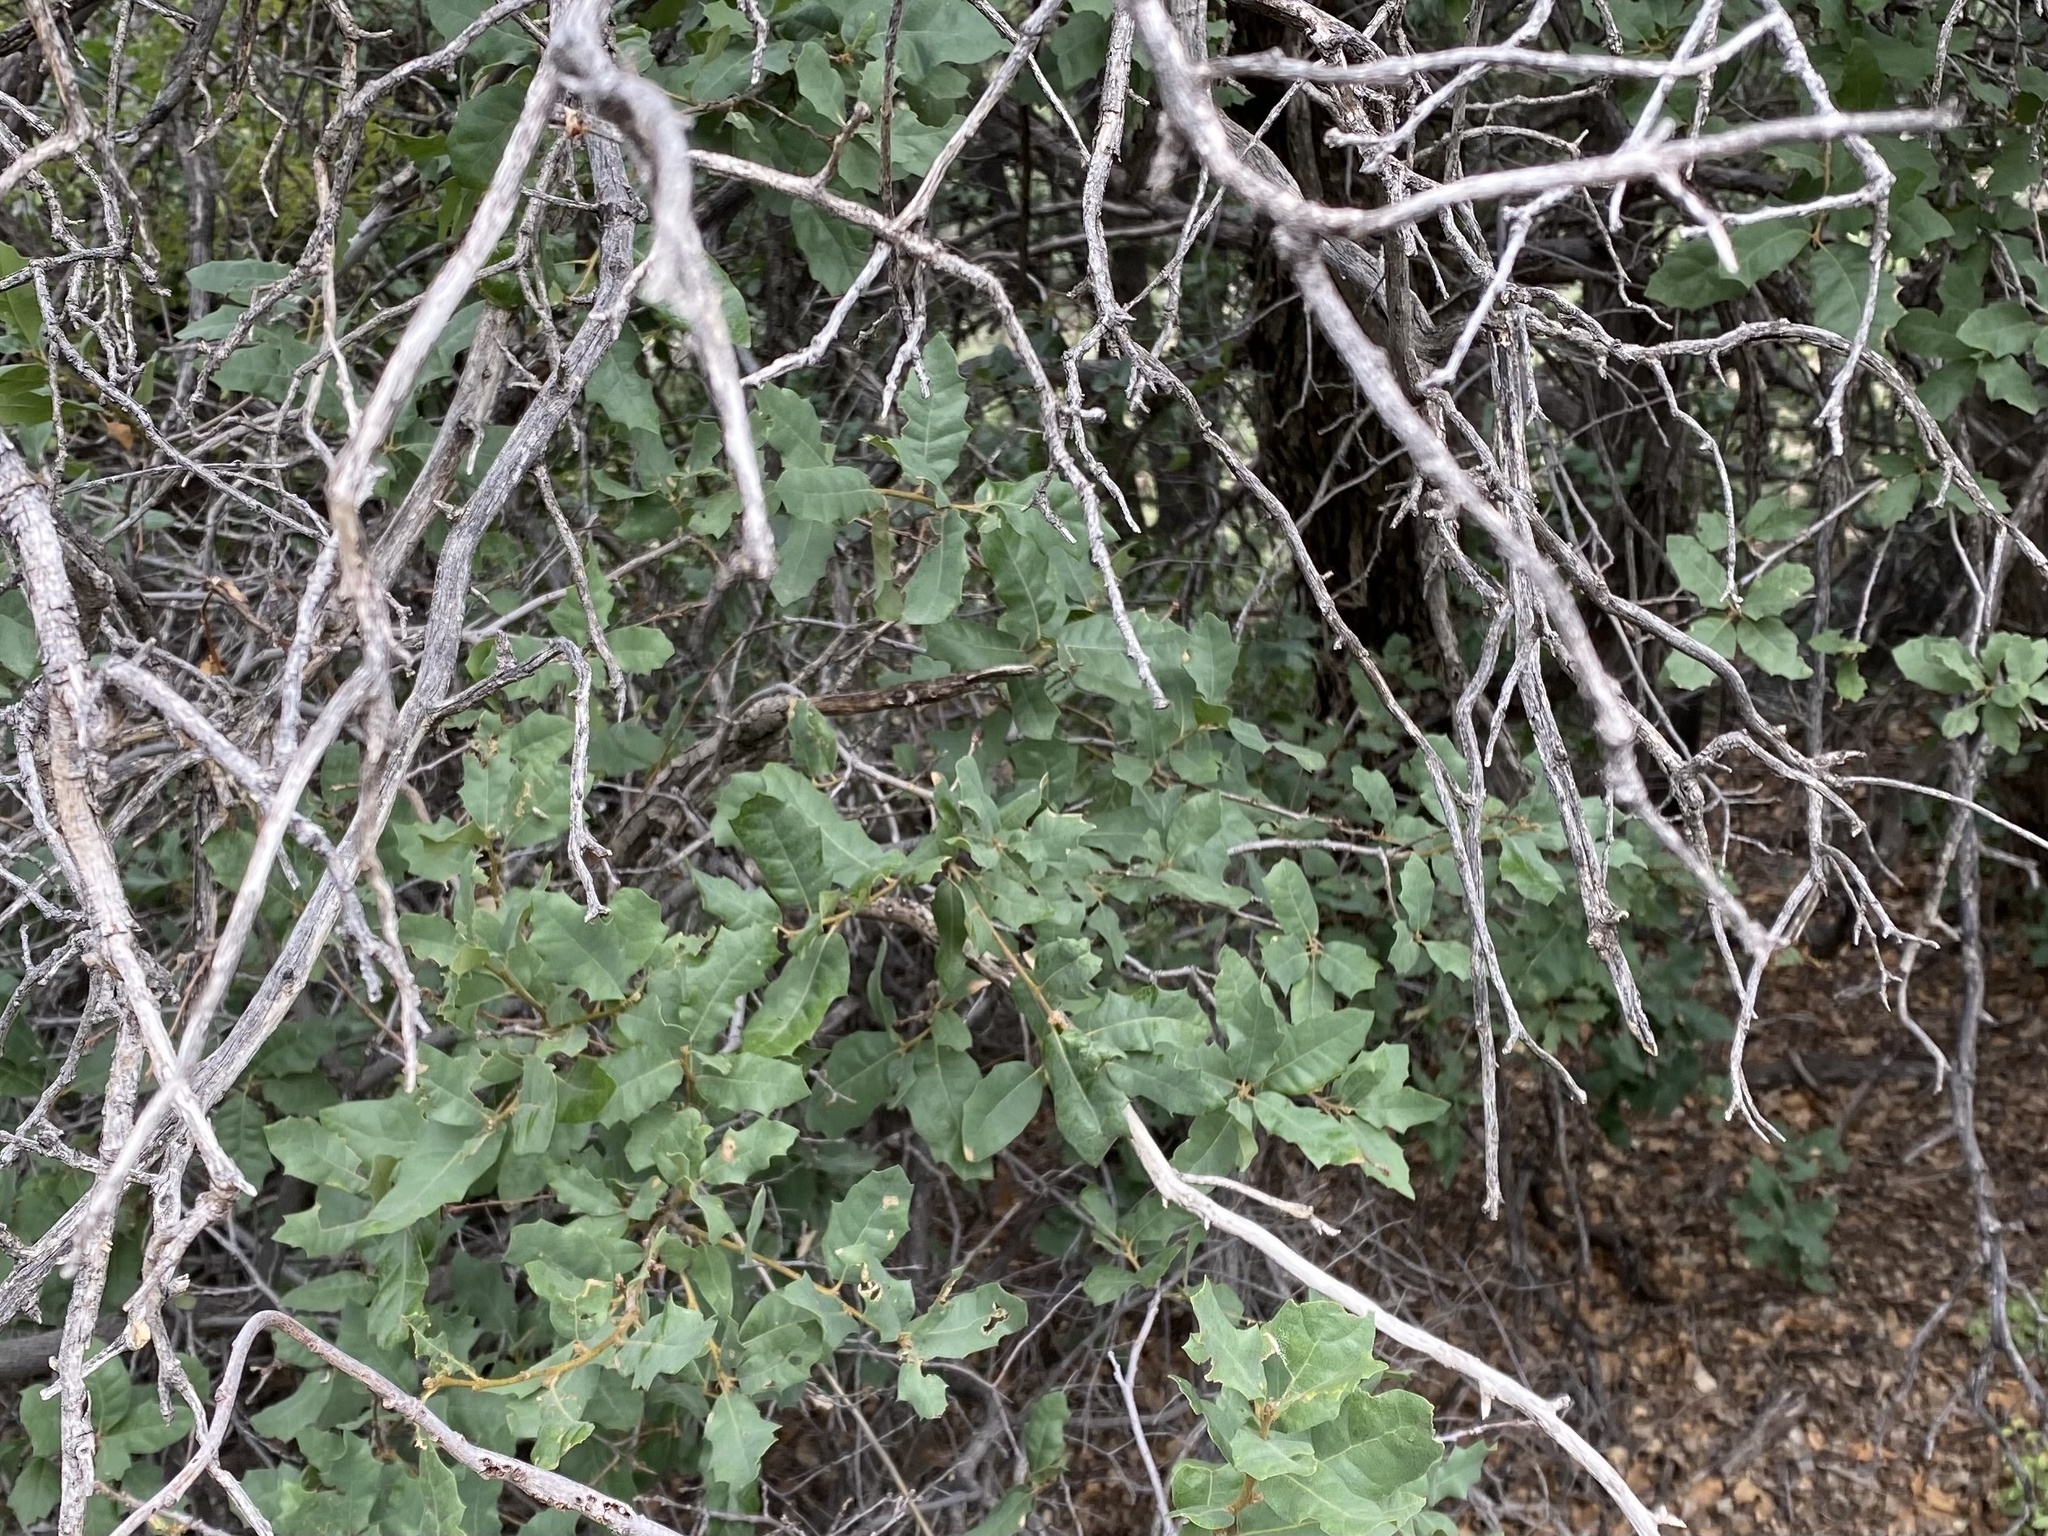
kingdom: Plantae
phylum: Tracheophyta
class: Magnoliopsida
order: Fagales
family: Fagaceae
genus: Quercus
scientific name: Quercus grisea
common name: Gray oak
